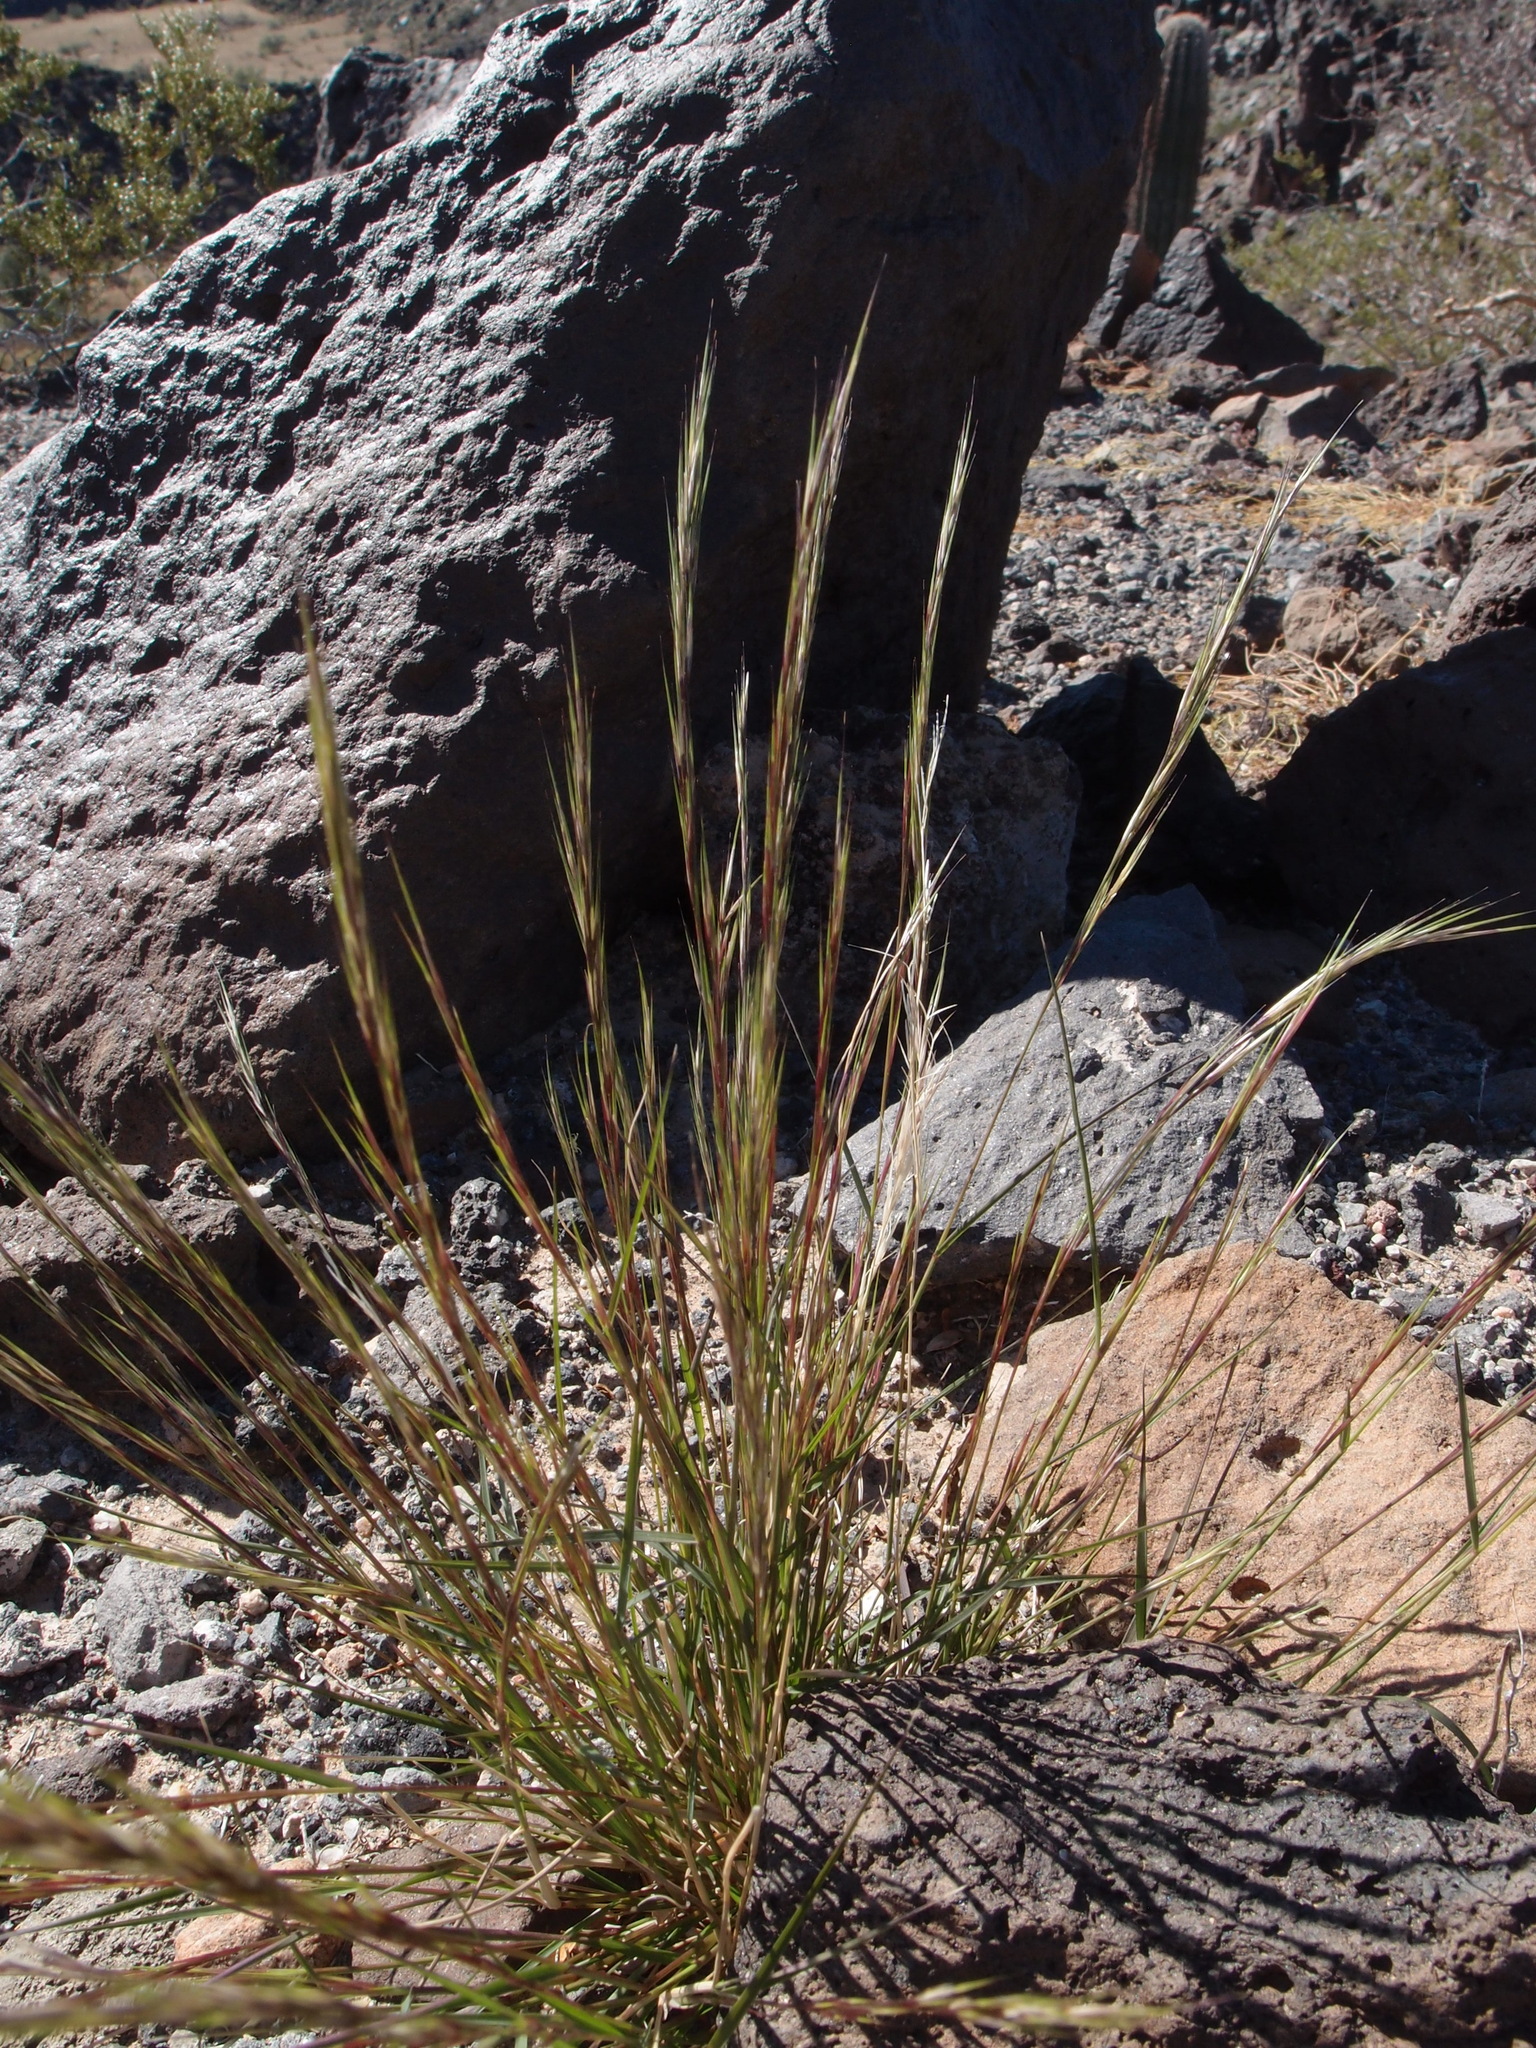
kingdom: Plantae
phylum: Tracheophyta
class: Liliopsida
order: Poales
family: Poaceae
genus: Aristida
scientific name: Aristida adscensionis
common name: Sixweeks threeawn
